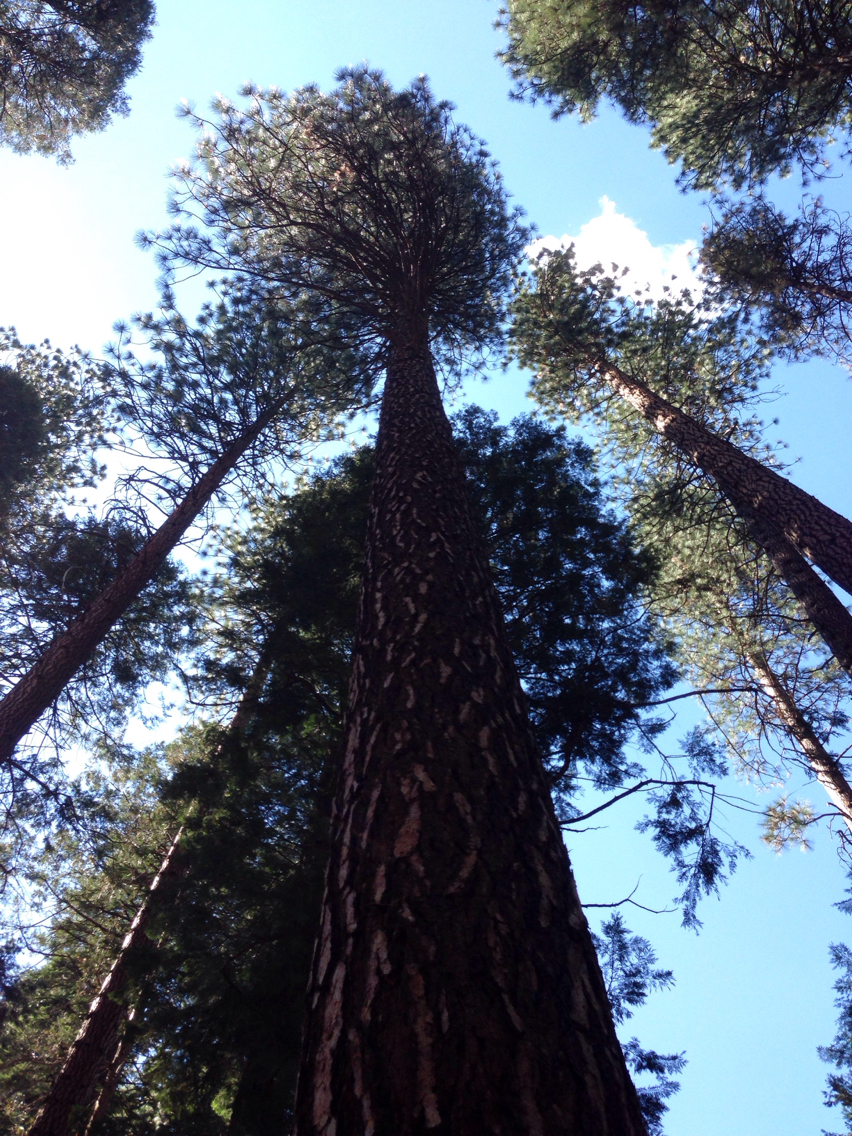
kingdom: Plantae
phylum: Tracheophyta
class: Pinopsida
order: Pinales
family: Pinaceae
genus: Pinus
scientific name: Pinus ponderosa
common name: Western yellow-pine
